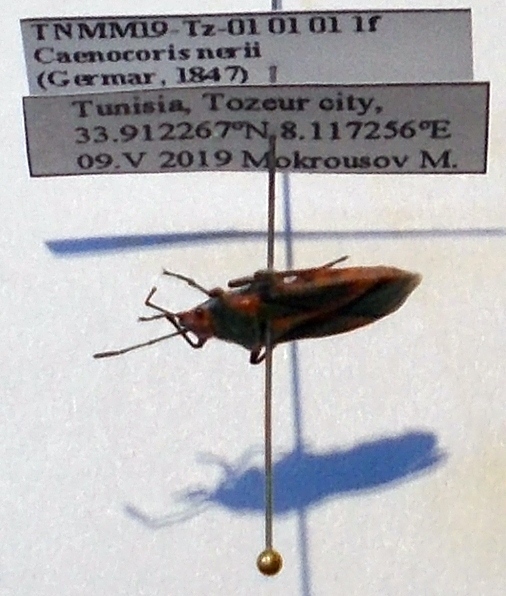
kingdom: Animalia
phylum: Arthropoda
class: Insecta
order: Hemiptera
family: Lygaeidae
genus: Caenocoris
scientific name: Caenocoris nerii
